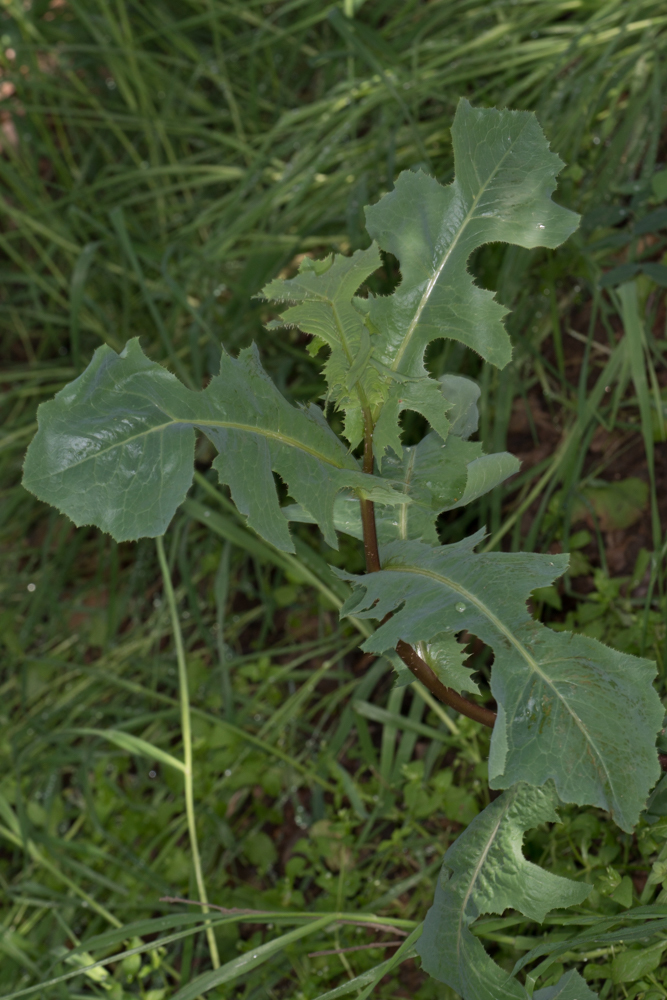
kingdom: Plantae
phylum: Tracheophyta
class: Magnoliopsida
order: Asterales
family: Asteraceae
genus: Lactuca
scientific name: Lactuca serriola
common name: Prickly lettuce
